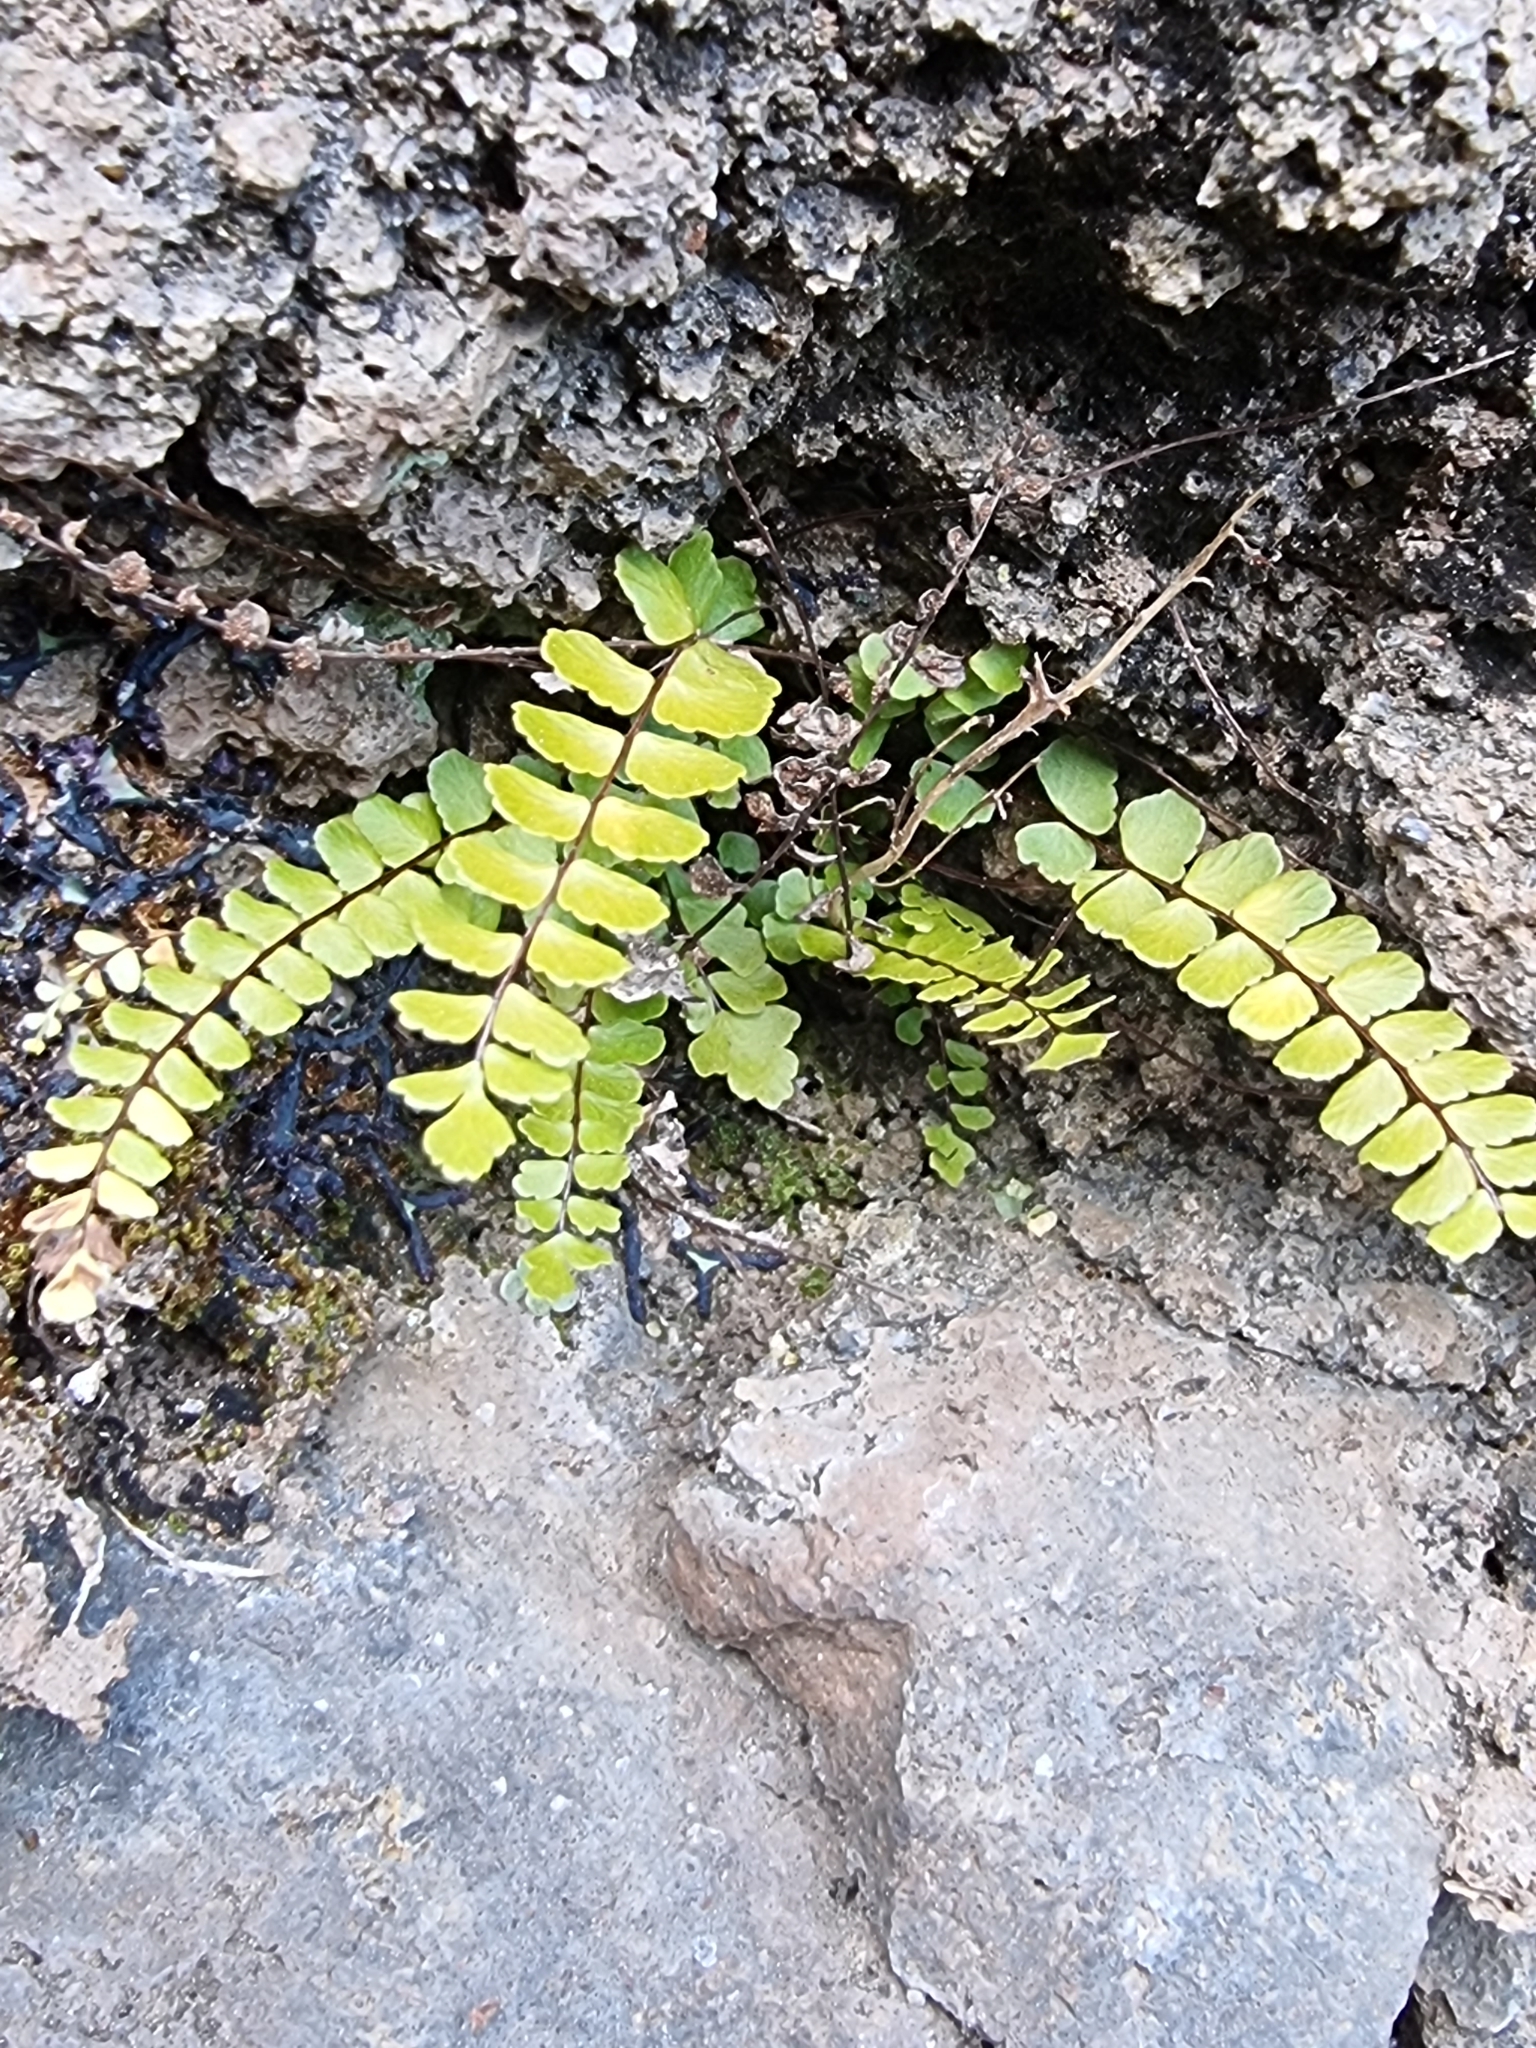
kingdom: Plantae
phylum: Tracheophyta
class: Polypodiopsida
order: Polypodiales
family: Aspleniaceae
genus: Asplenium
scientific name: Asplenium trichomanes
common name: Maidenhair spleenwort
